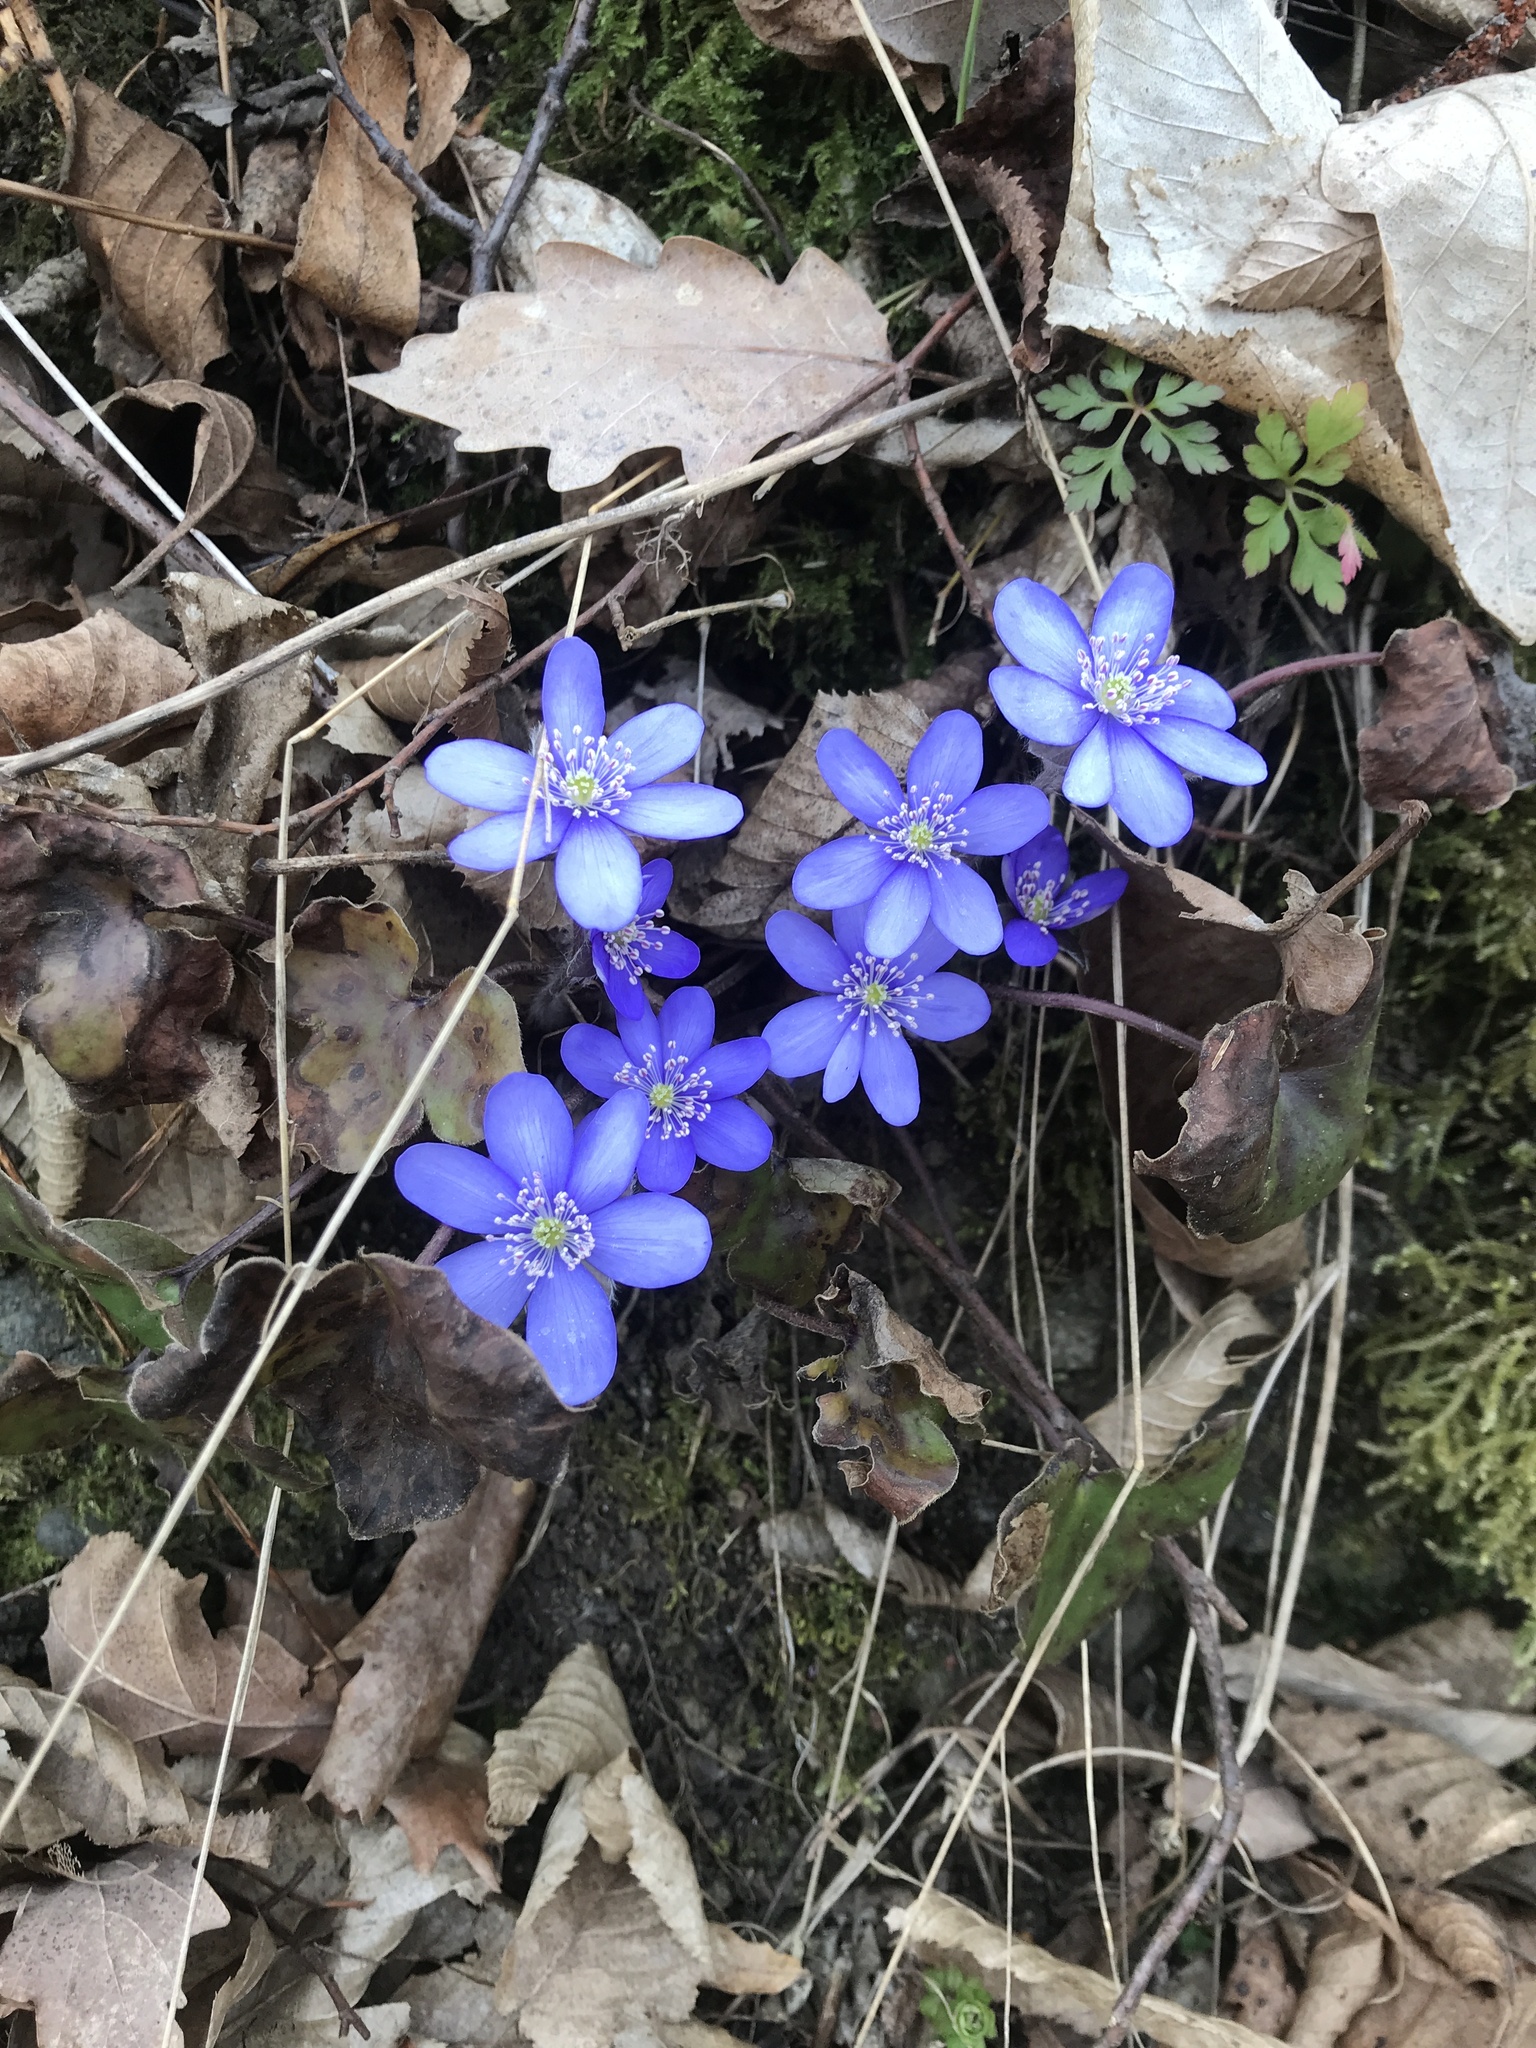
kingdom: Plantae
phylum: Tracheophyta
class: Magnoliopsida
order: Ranunculales
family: Ranunculaceae
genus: Hepatica
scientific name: Hepatica nobilis
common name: Liverleaf
